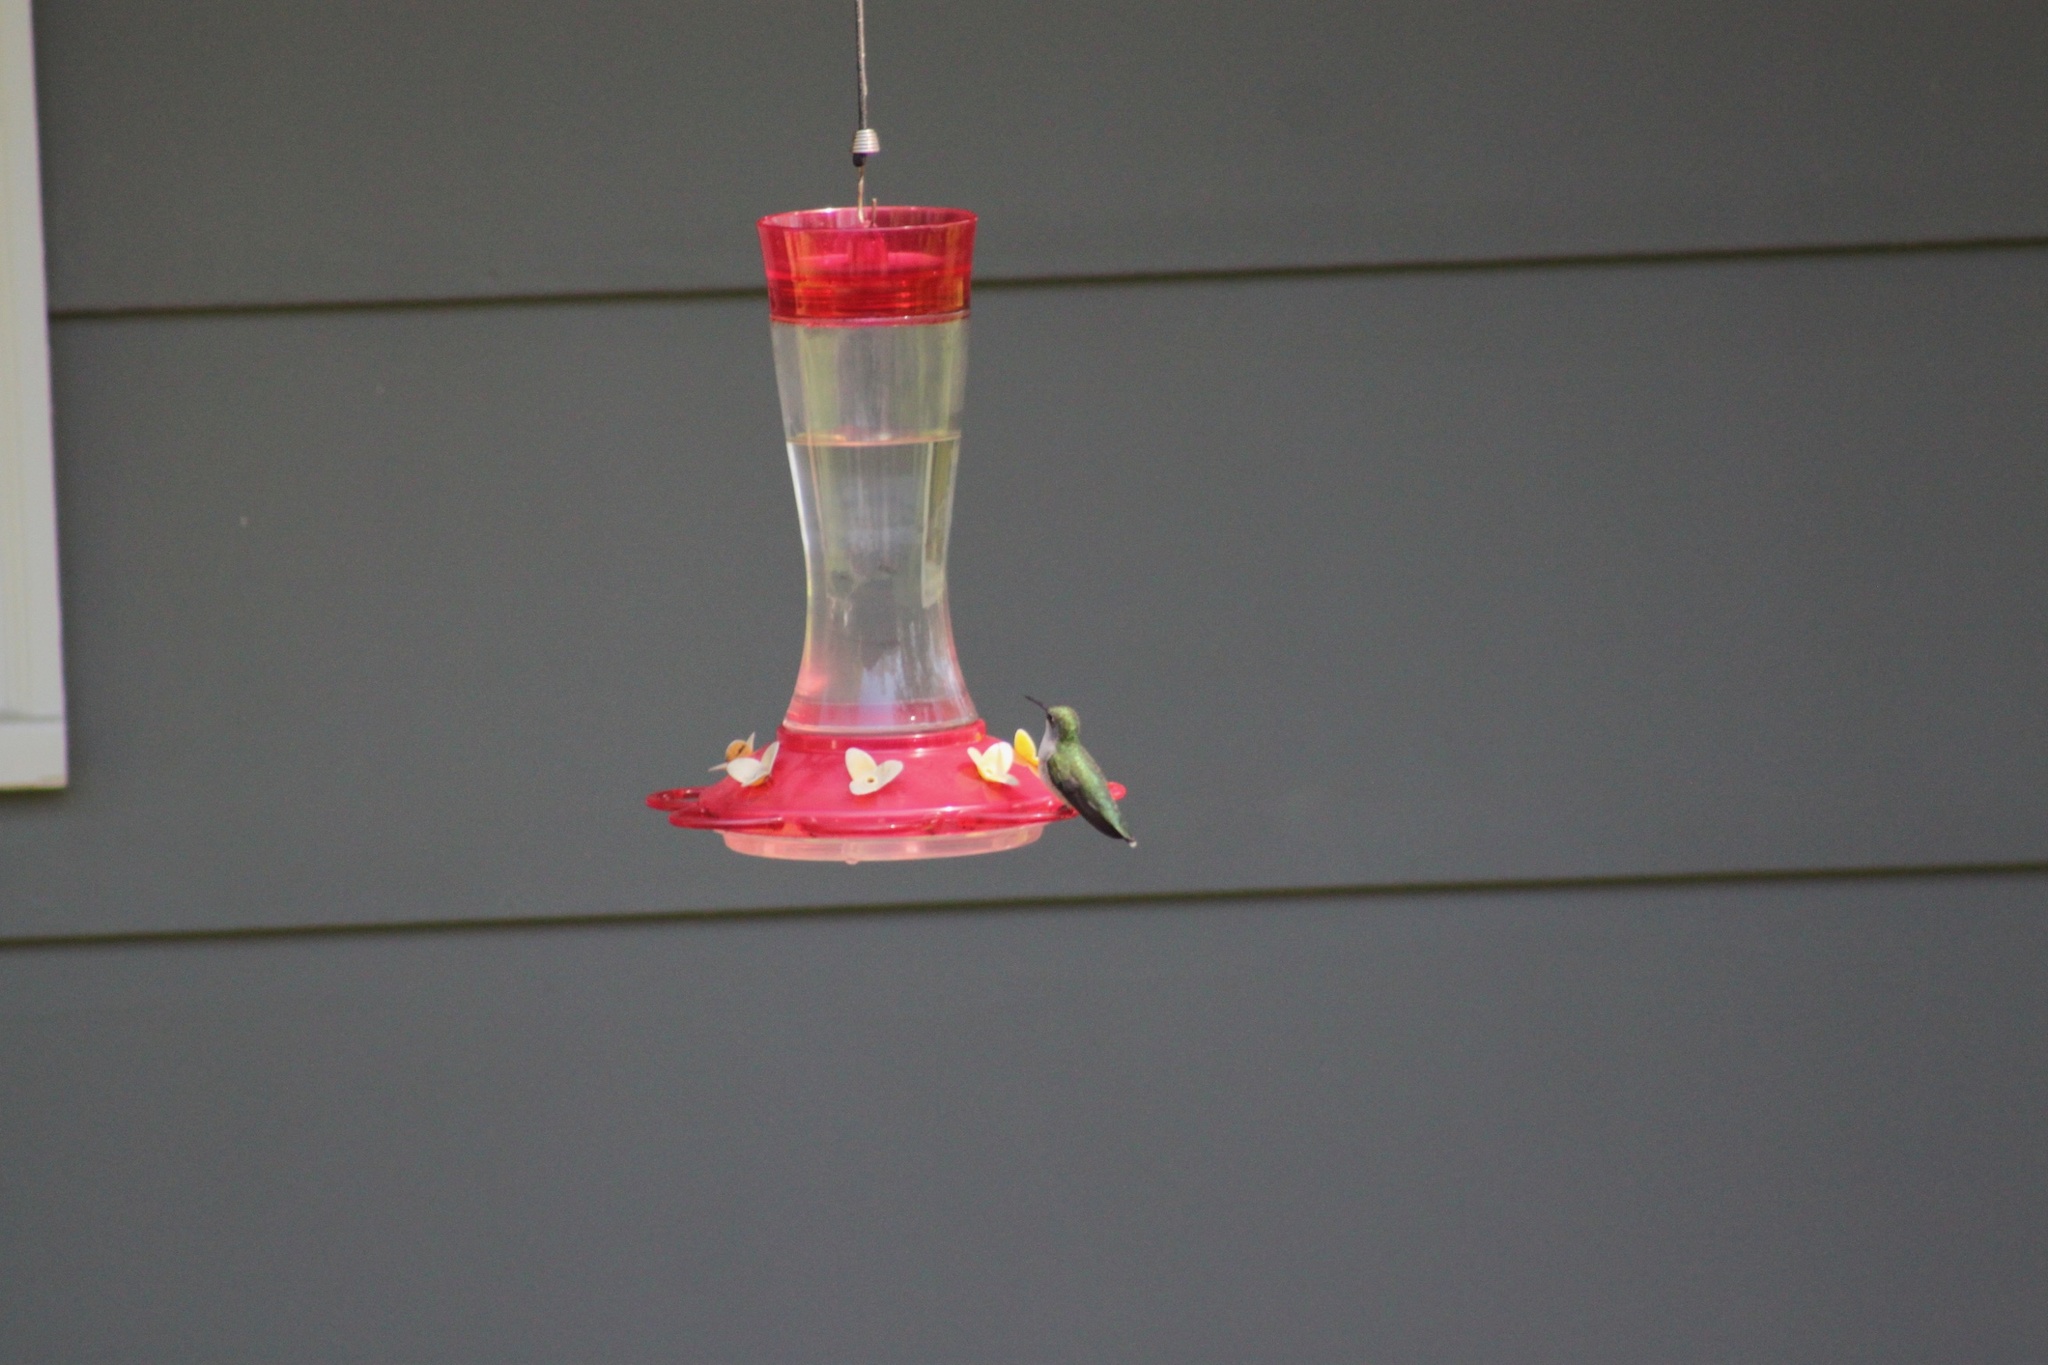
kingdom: Animalia
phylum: Chordata
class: Aves
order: Apodiformes
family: Trochilidae
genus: Archilochus
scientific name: Archilochus colubris
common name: Ruby-throated hummingbird
